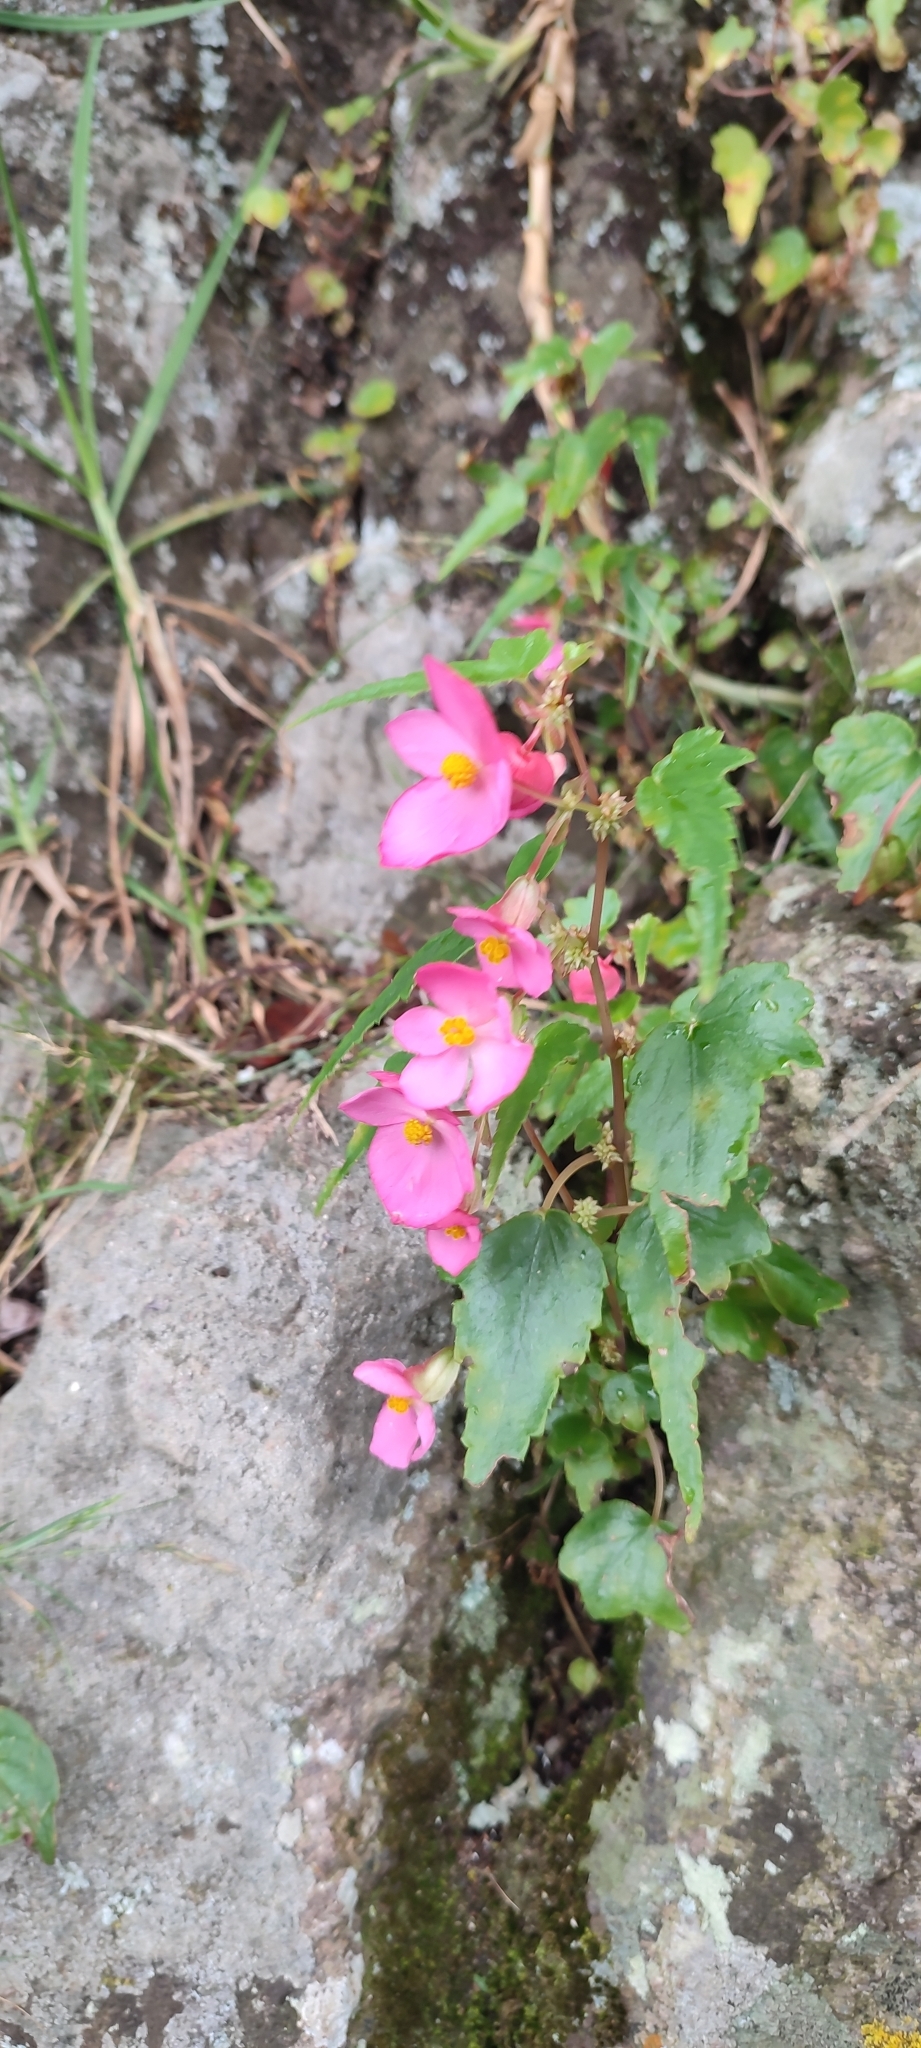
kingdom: Plantae
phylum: Tracheophyta
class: Magnoliopsida
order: Cucurbitales
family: Begoniaceae
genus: Begonia
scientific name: Begonia gracilis
